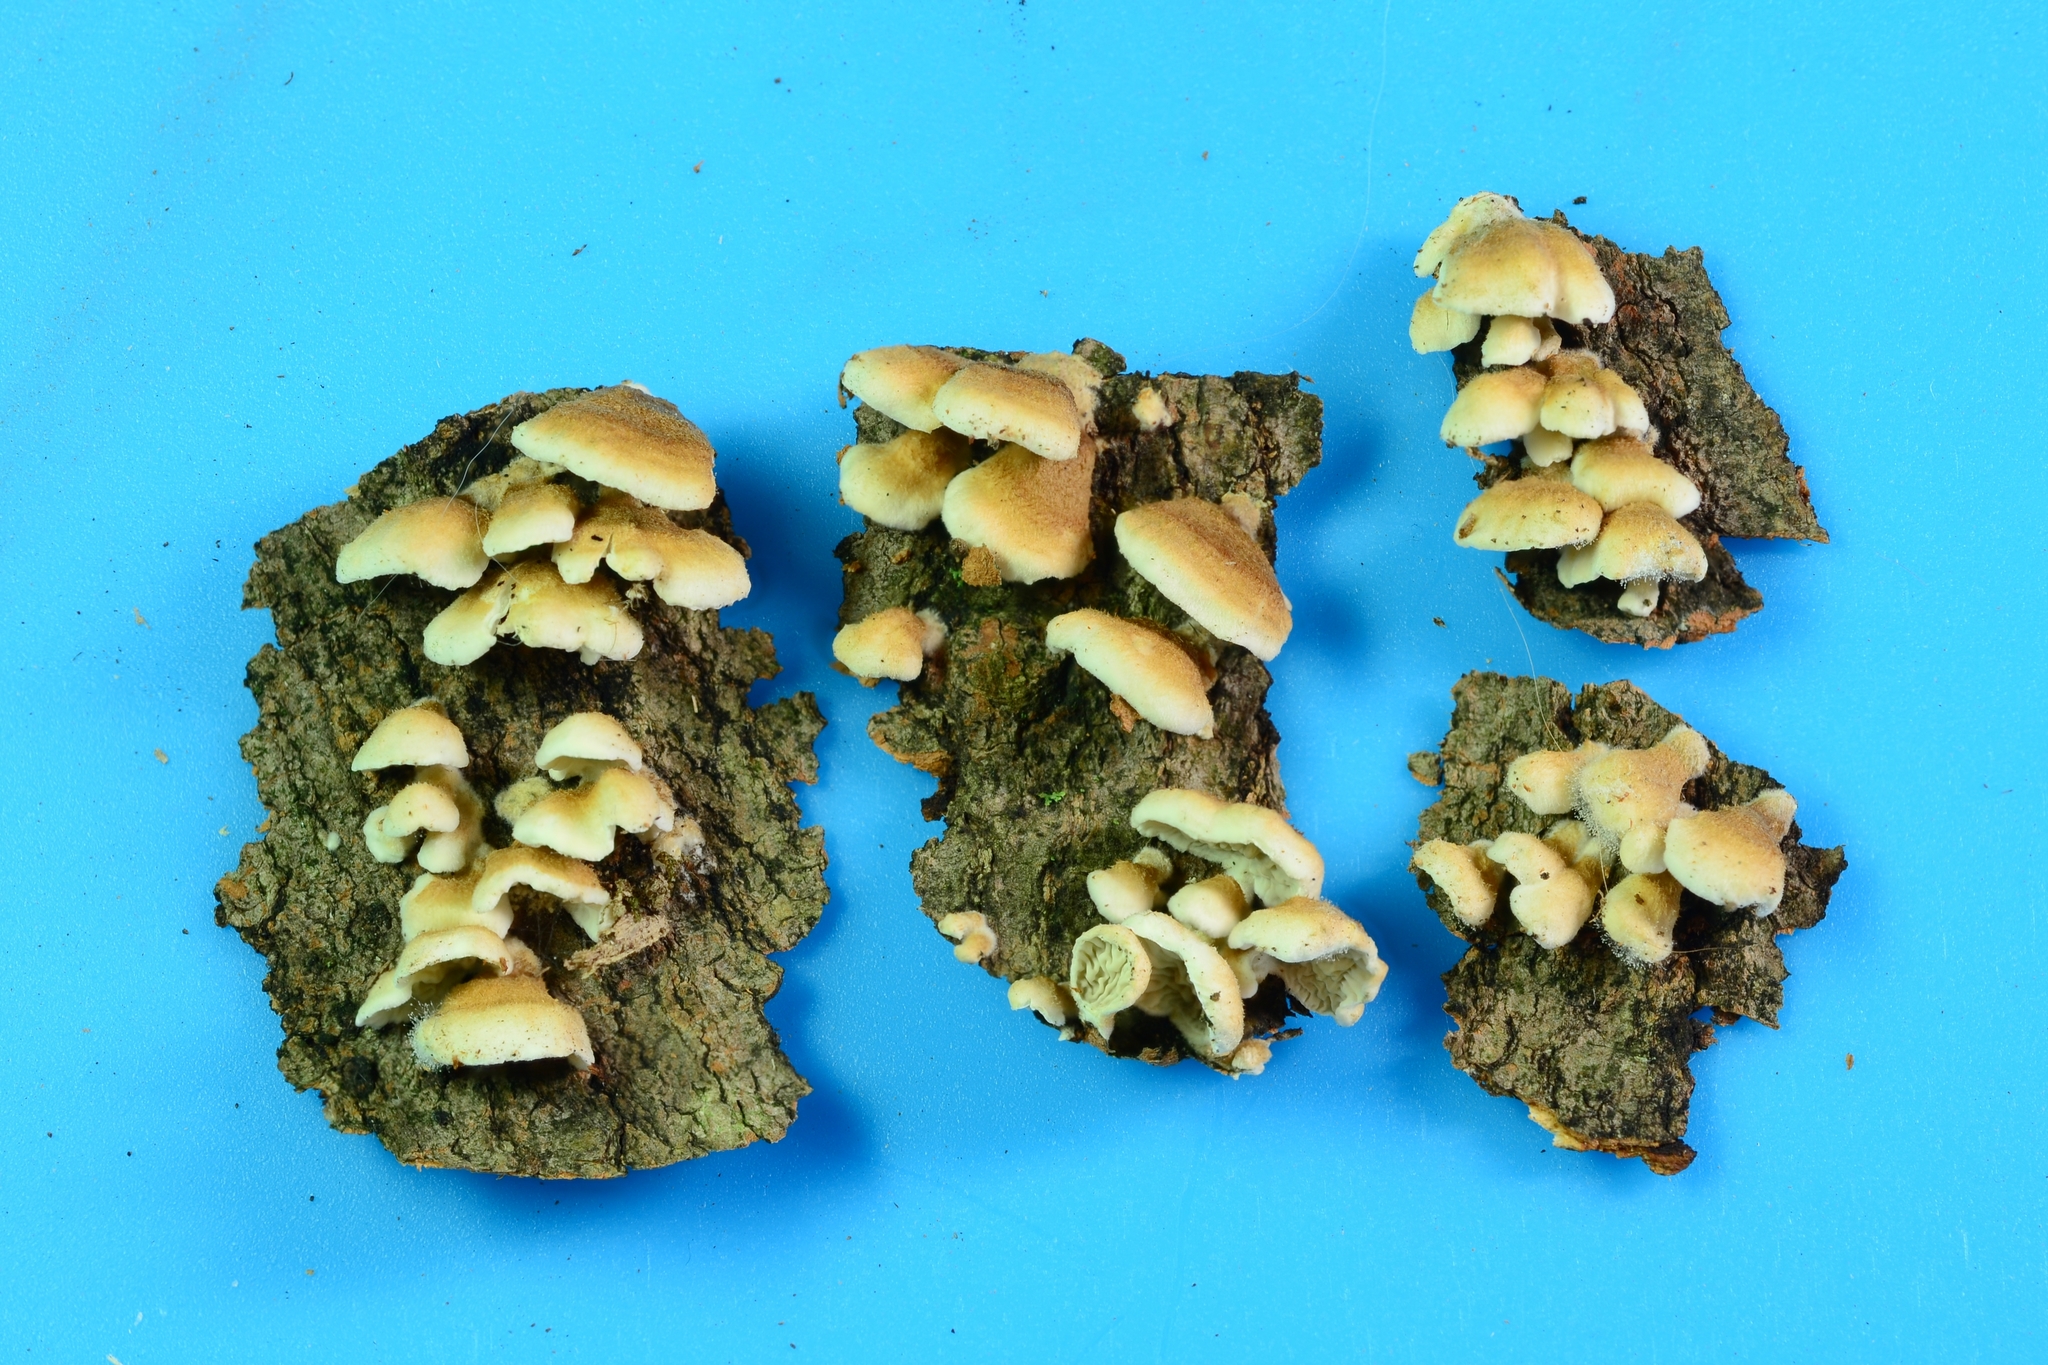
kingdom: Fungi
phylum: Basidiomycota
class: Agaricomycetes
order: Amylocorticiales
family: Amylocorticiaceae
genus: Plicaturopsis
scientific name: Plicaturopsis crispa
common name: Crimped gill
